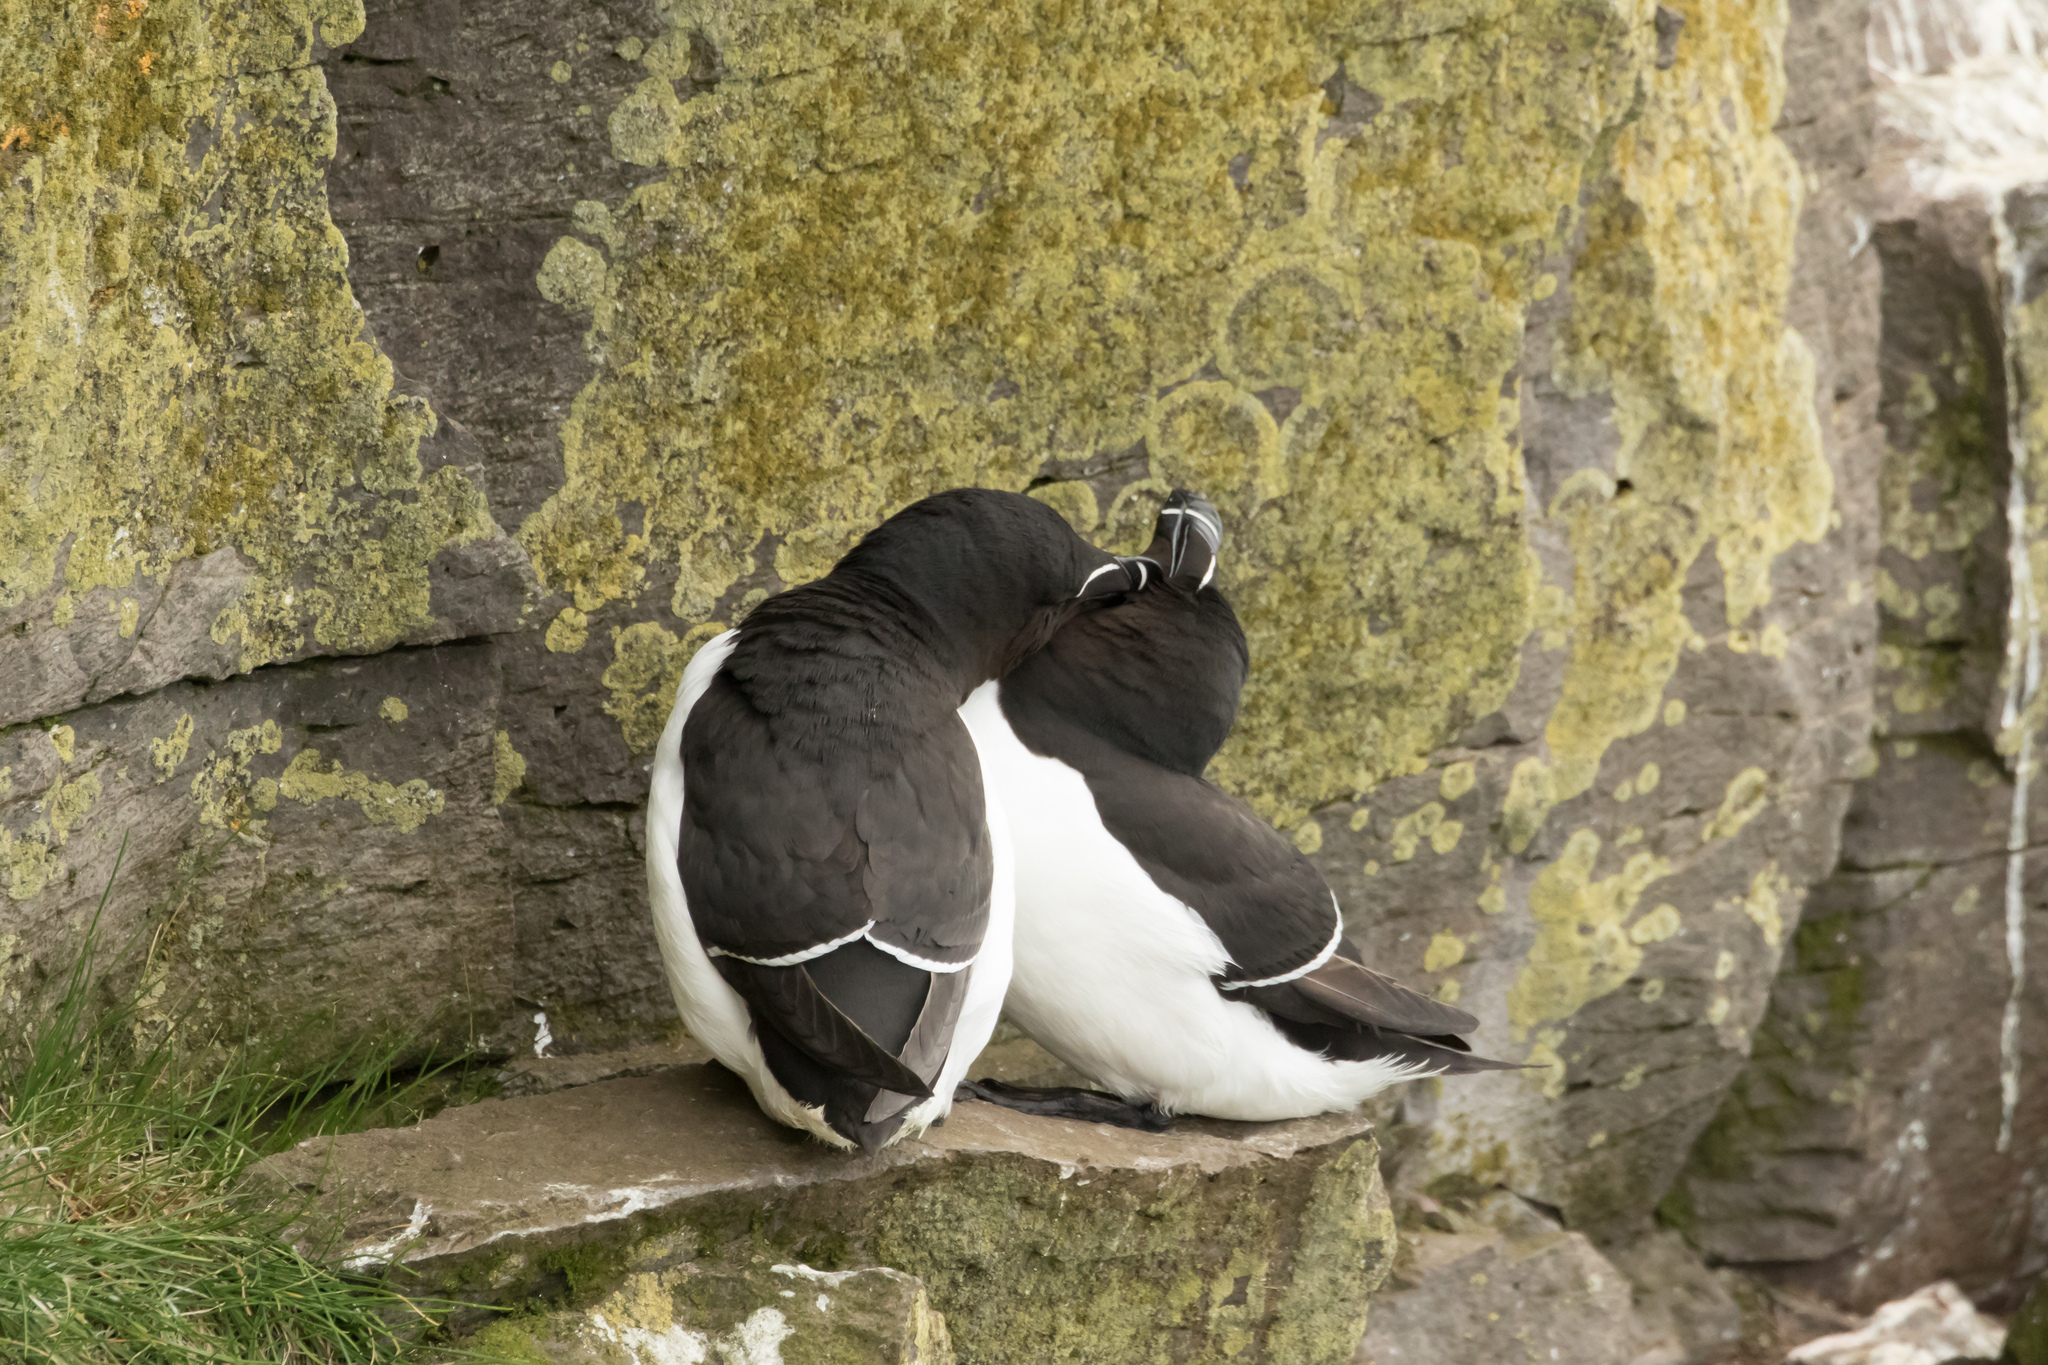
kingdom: Animalia
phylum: Chordata
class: Aves
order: Charadriiformes
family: Alcidae
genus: Alca
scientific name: Alca torda
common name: Razorbill
